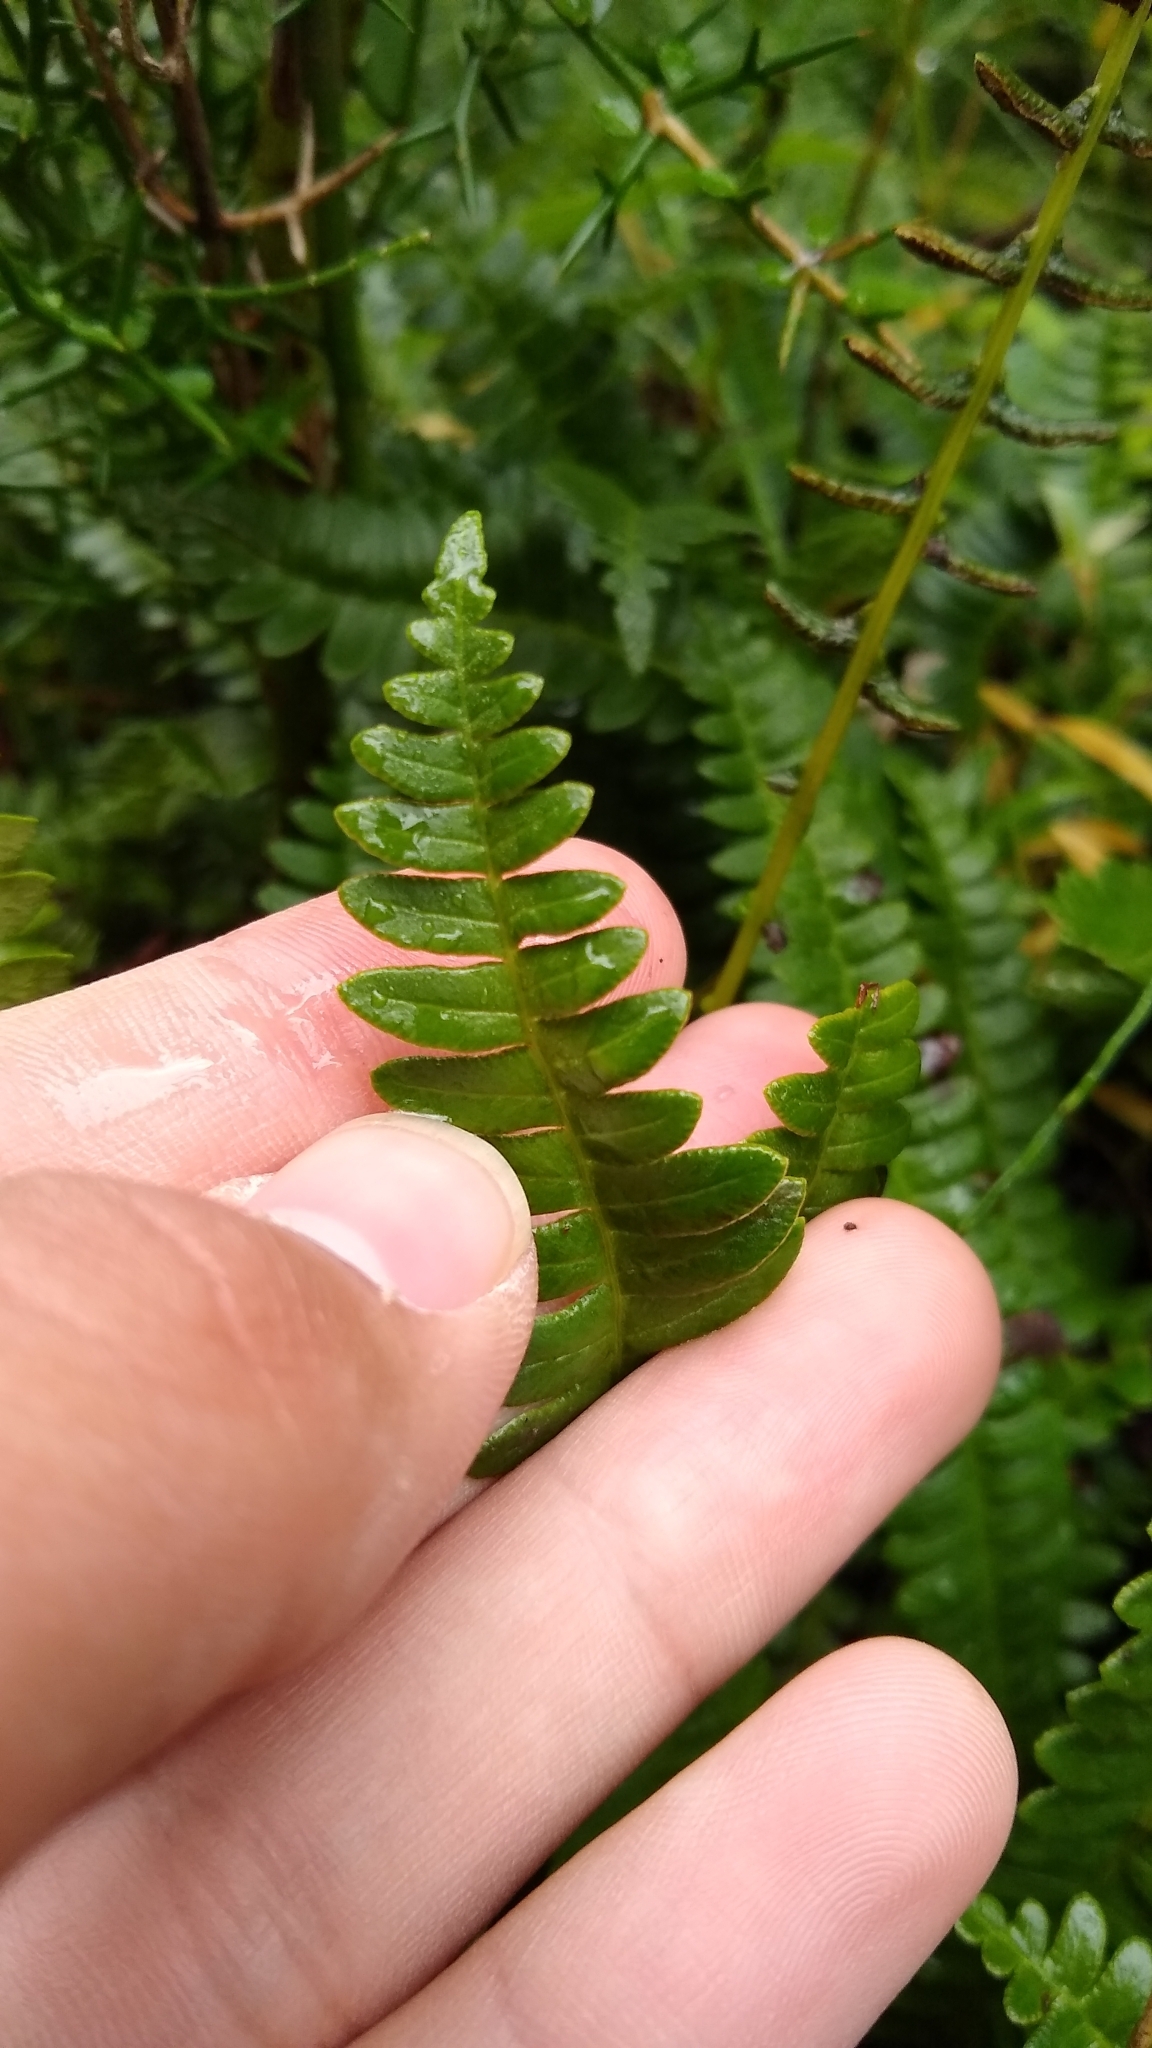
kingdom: Plantae
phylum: Tracheophyta
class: Polypodiopsida
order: Polypodiales
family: Blechnaceae
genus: Austroblechnum
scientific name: Austroblechnum penna-marina
